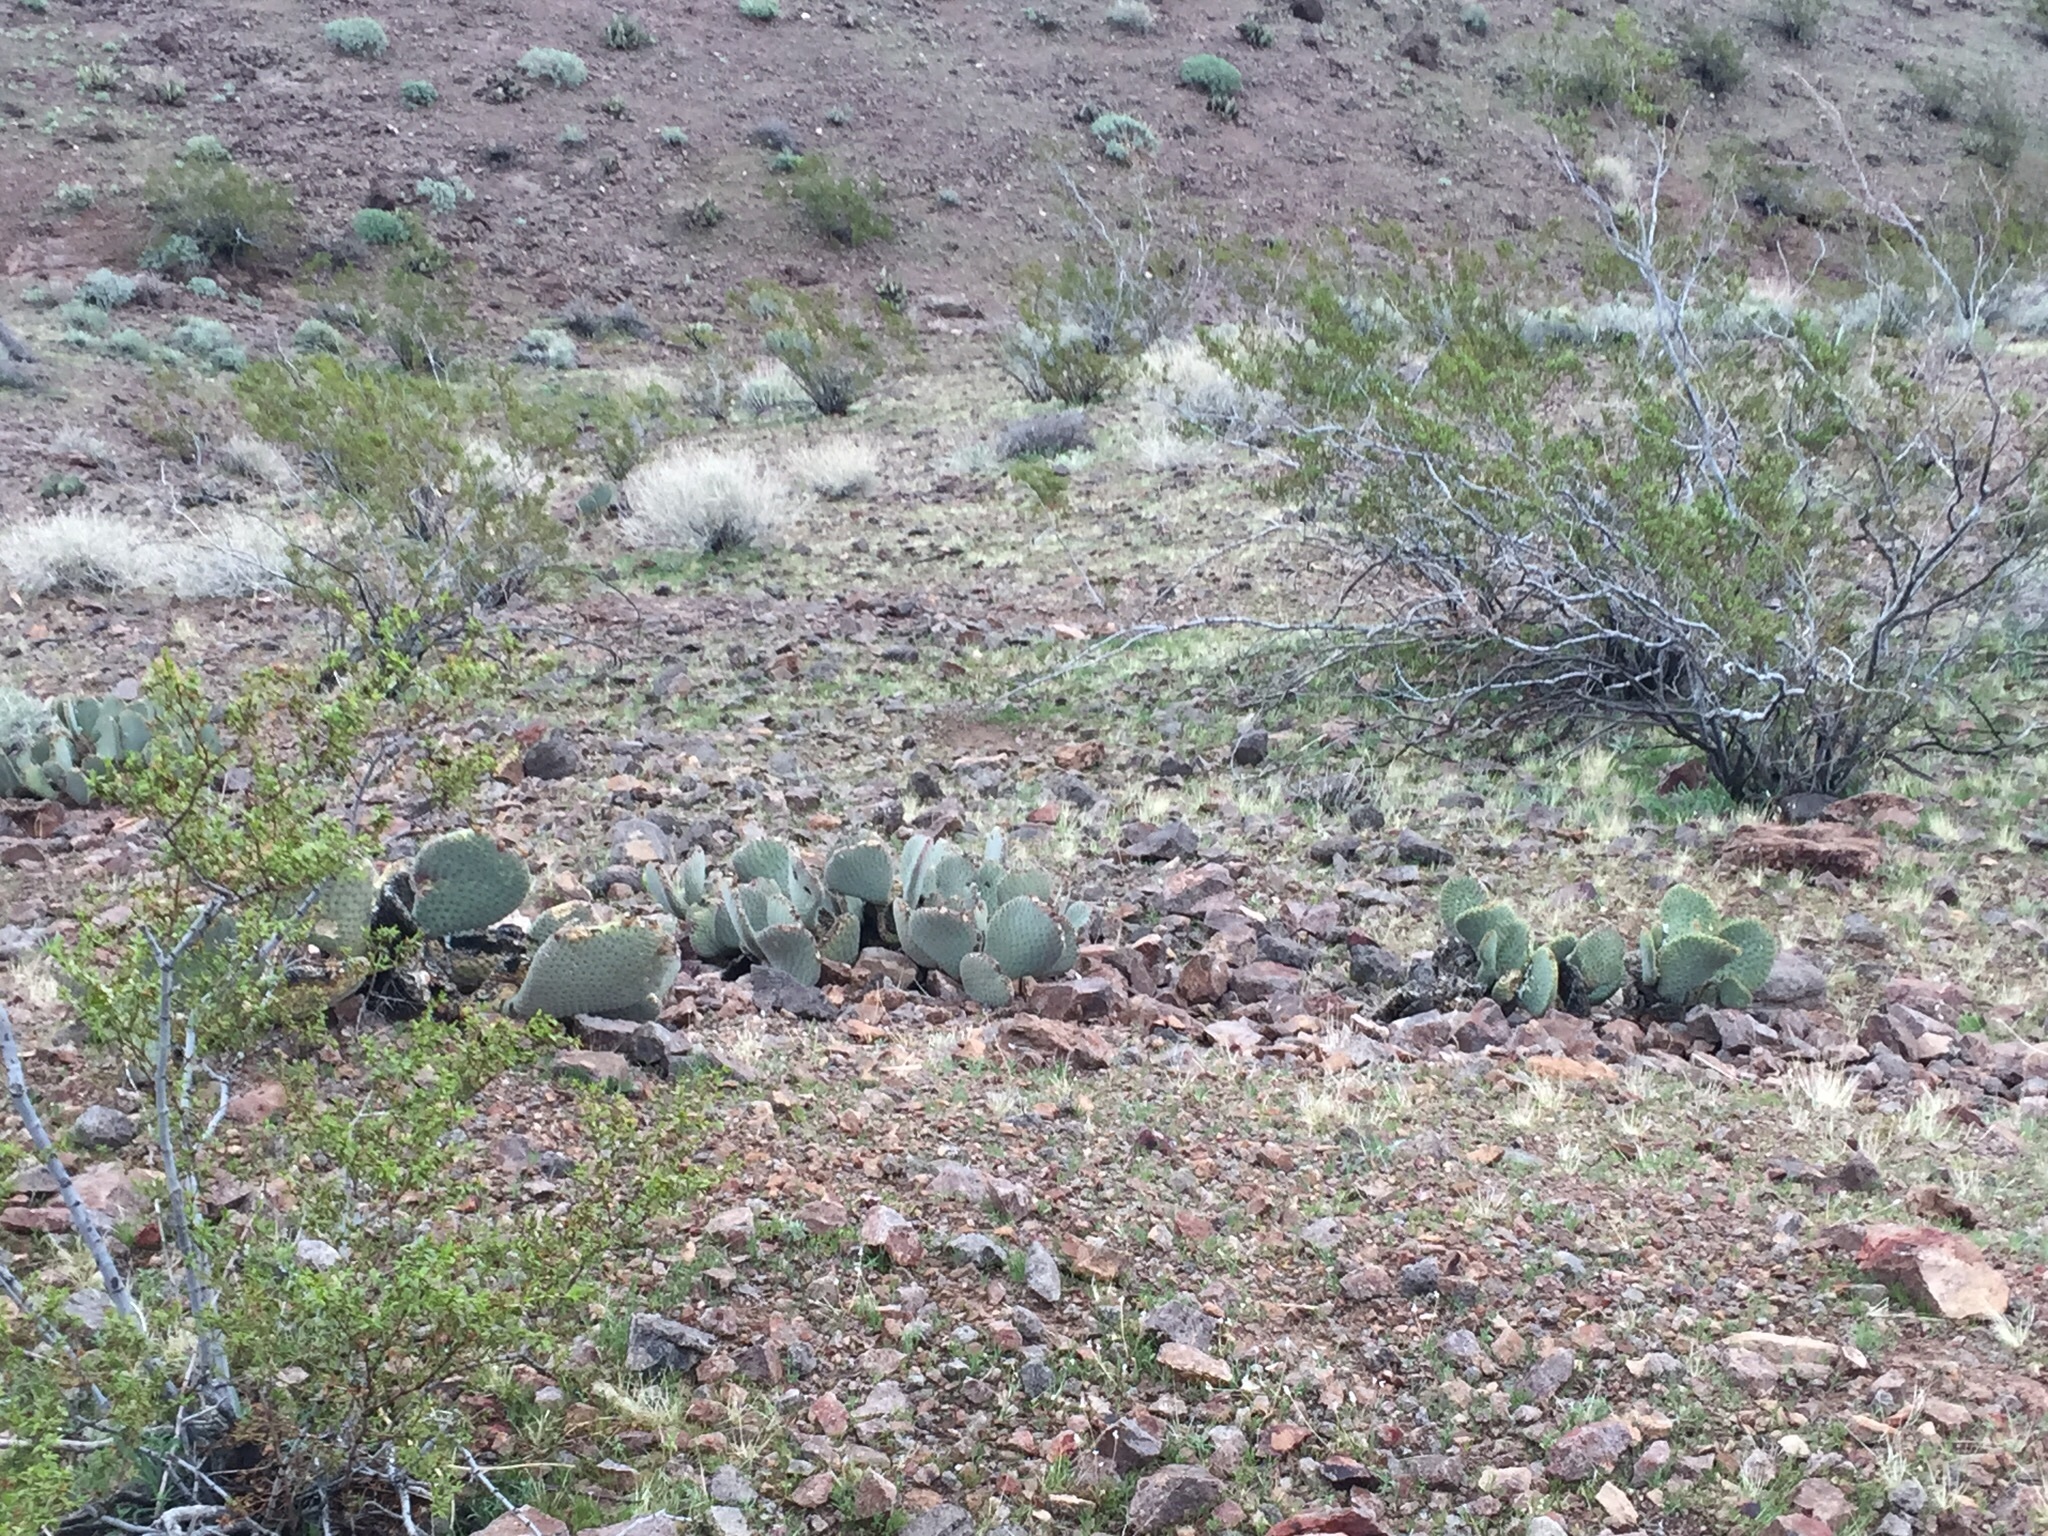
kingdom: Plantae
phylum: Tracheophyta
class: Magnoliopsida
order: Caryophyllales
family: Cactaceae
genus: Opuntia
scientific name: Opuntia basilaris
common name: Beavertail prickly-pear
